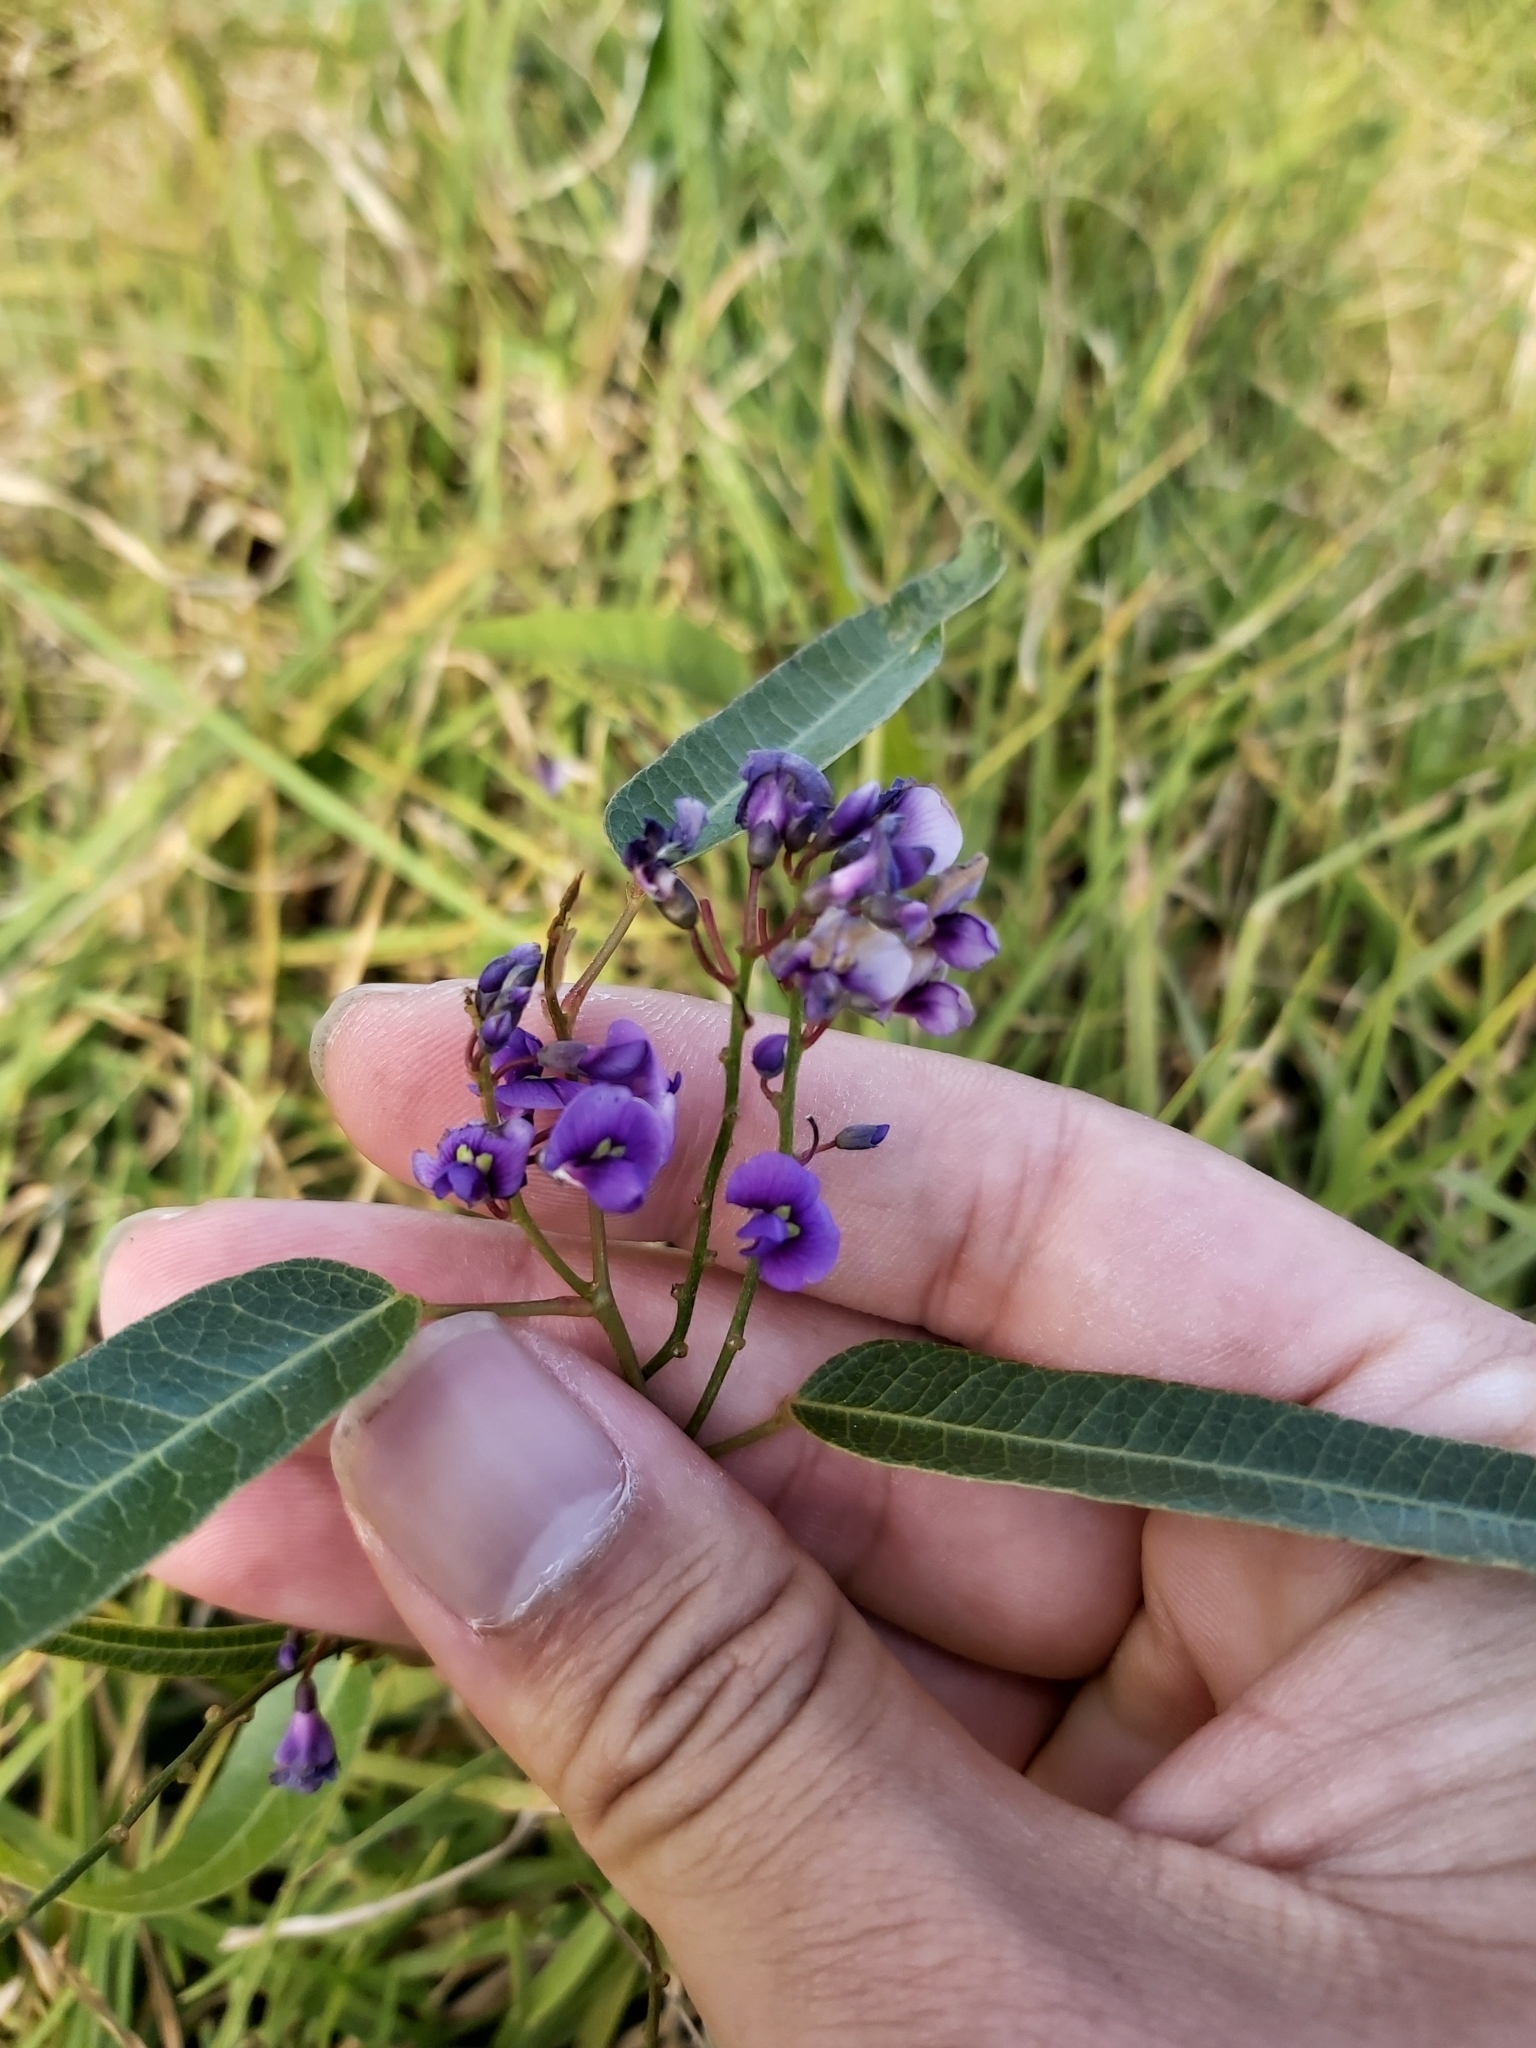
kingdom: Plantae
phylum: Tracheophyta
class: Magnoliopsida
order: Fabales
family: Fabaceae
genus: Hardenbergia
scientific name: Hardenbergia violacea
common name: Coral-pea
